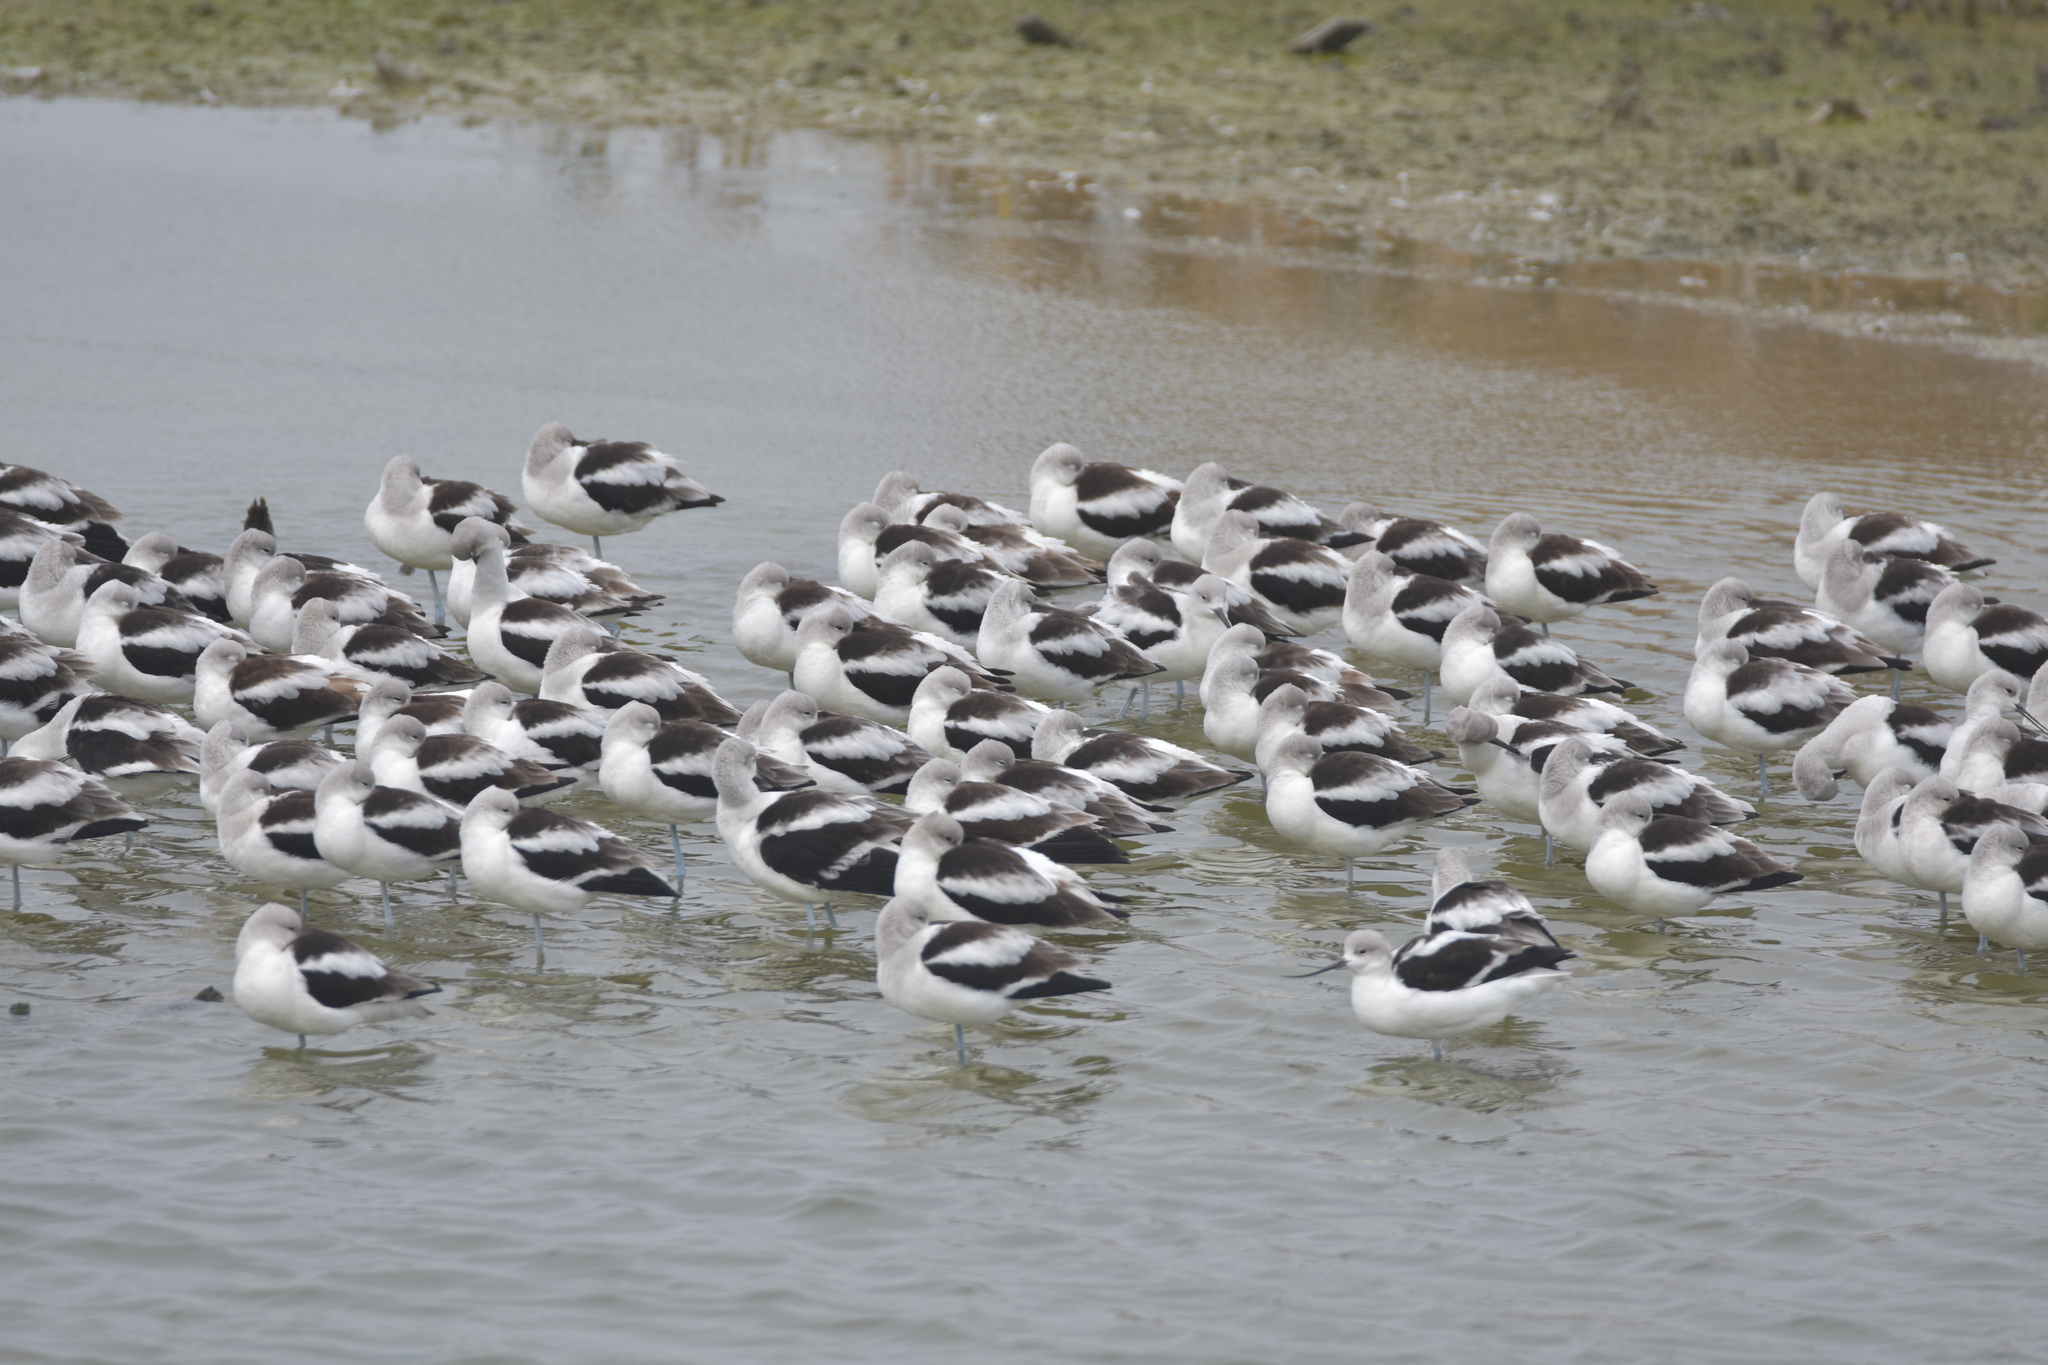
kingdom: Animalia
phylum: Chordata
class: Aves
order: Charadriiformes
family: Recurvirostridae
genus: Recurvirostra
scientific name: Recurvirostra americana
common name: American avocet
